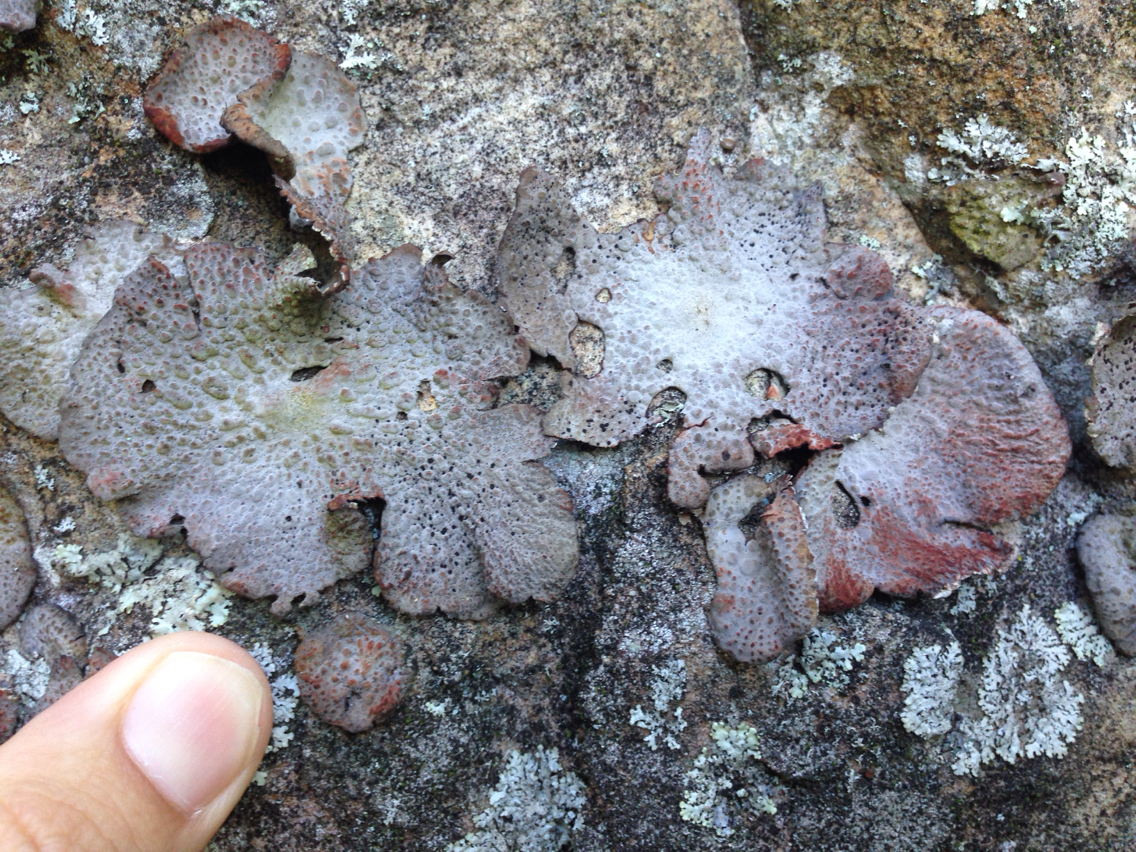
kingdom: Fungi
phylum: Ascomycota
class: Lecanoromycetes
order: Umbilicariales
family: Umbilicariaceae
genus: Lasallia
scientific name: Lasallia papulosa
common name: Common toadskin lichen
